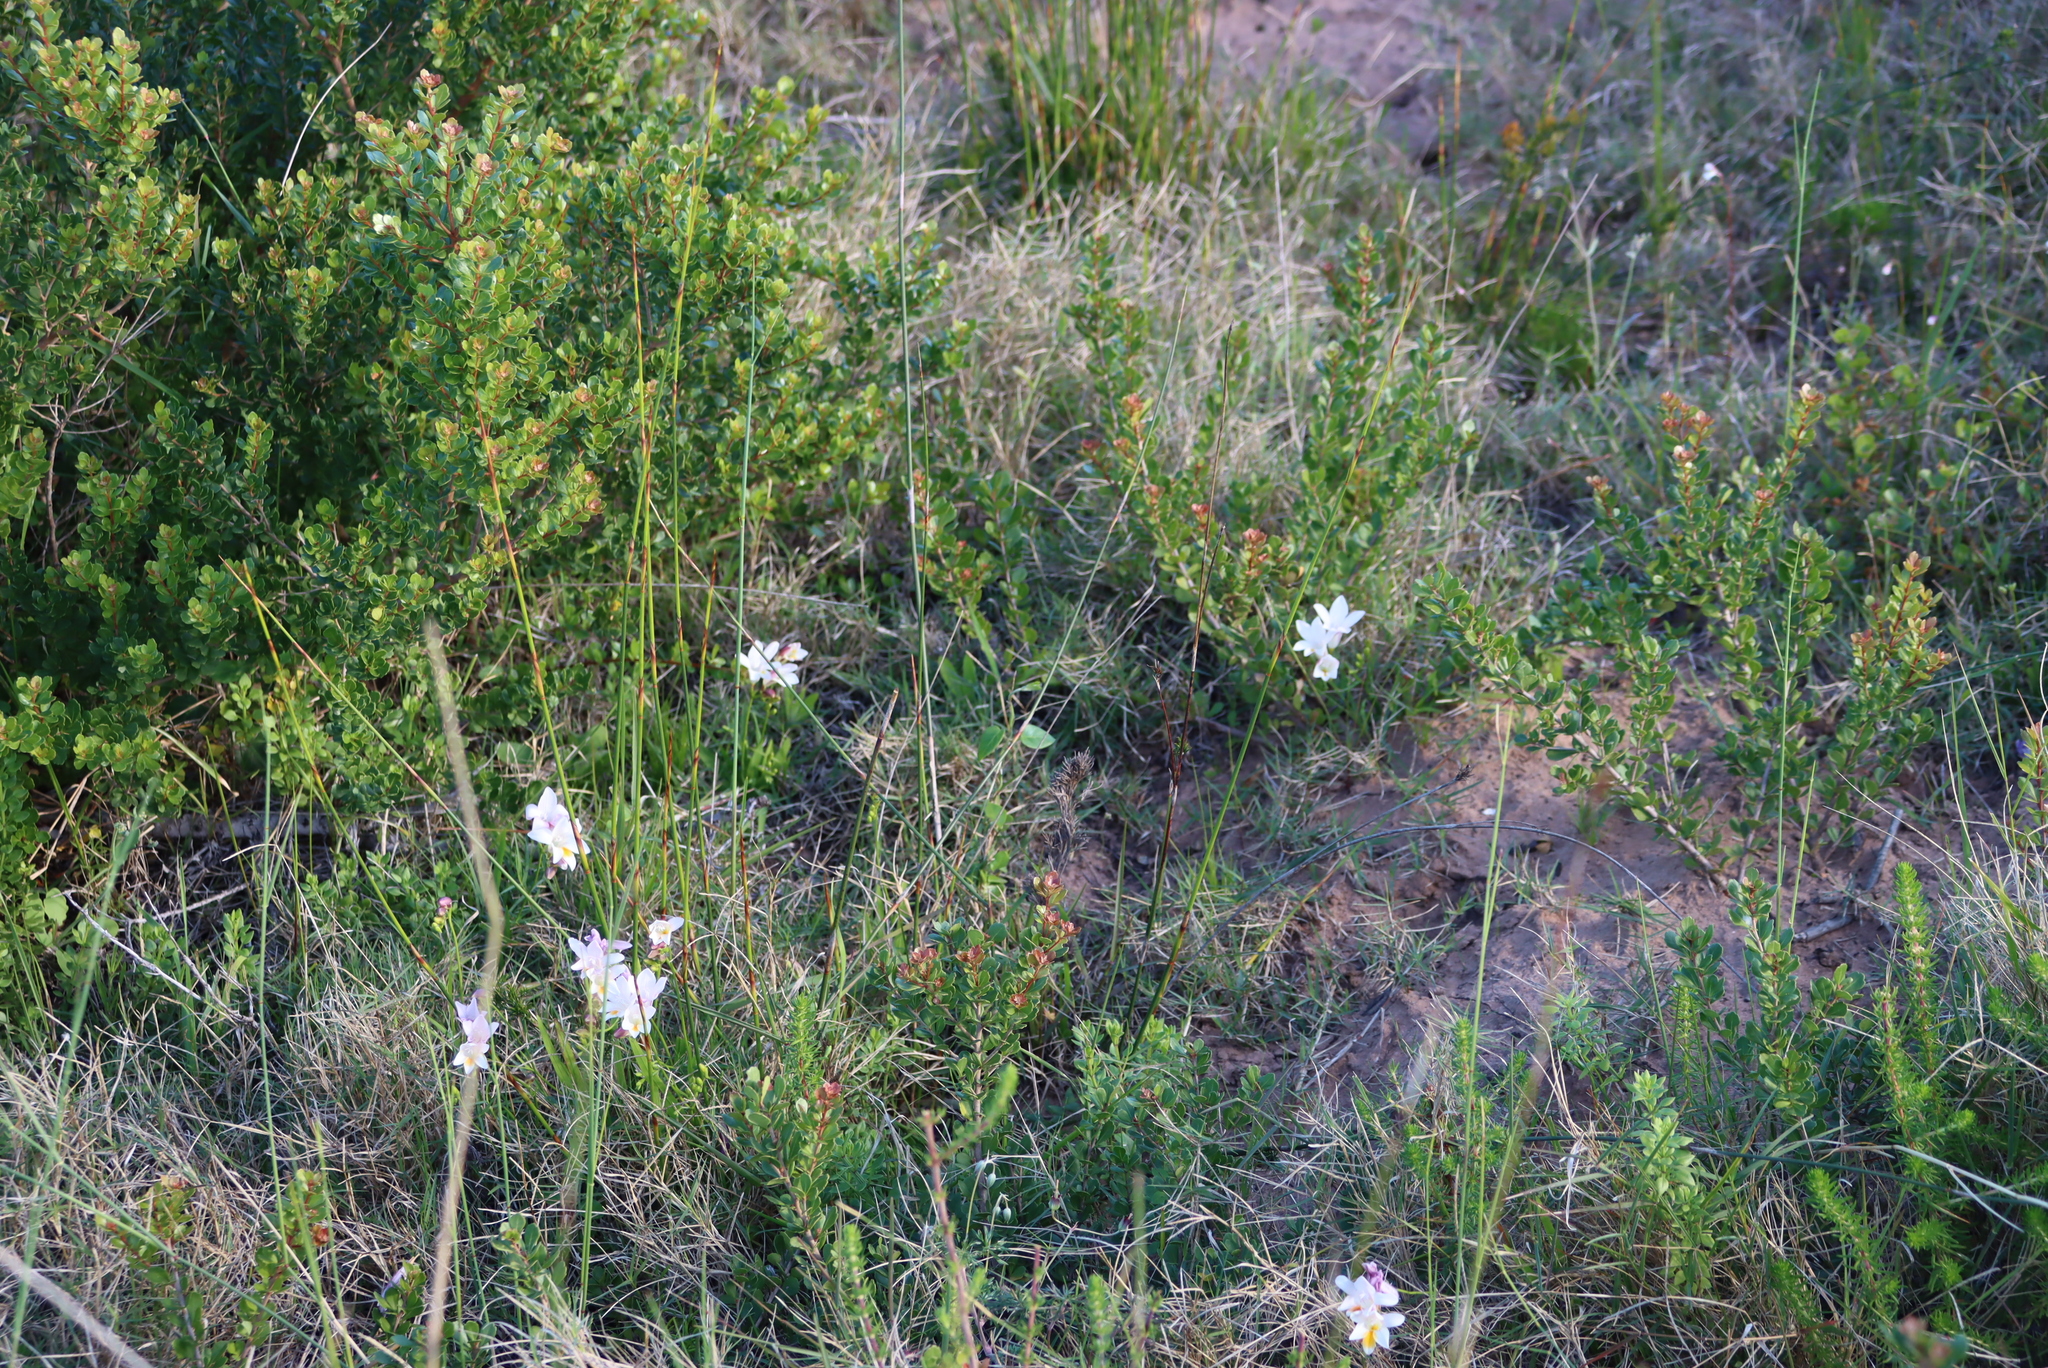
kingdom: Plantae
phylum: Tracheophyta
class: Magnoliopsida
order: Sapindales
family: Anacardiaceae
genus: Searsia
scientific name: Searsia crenata
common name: Crowberry
